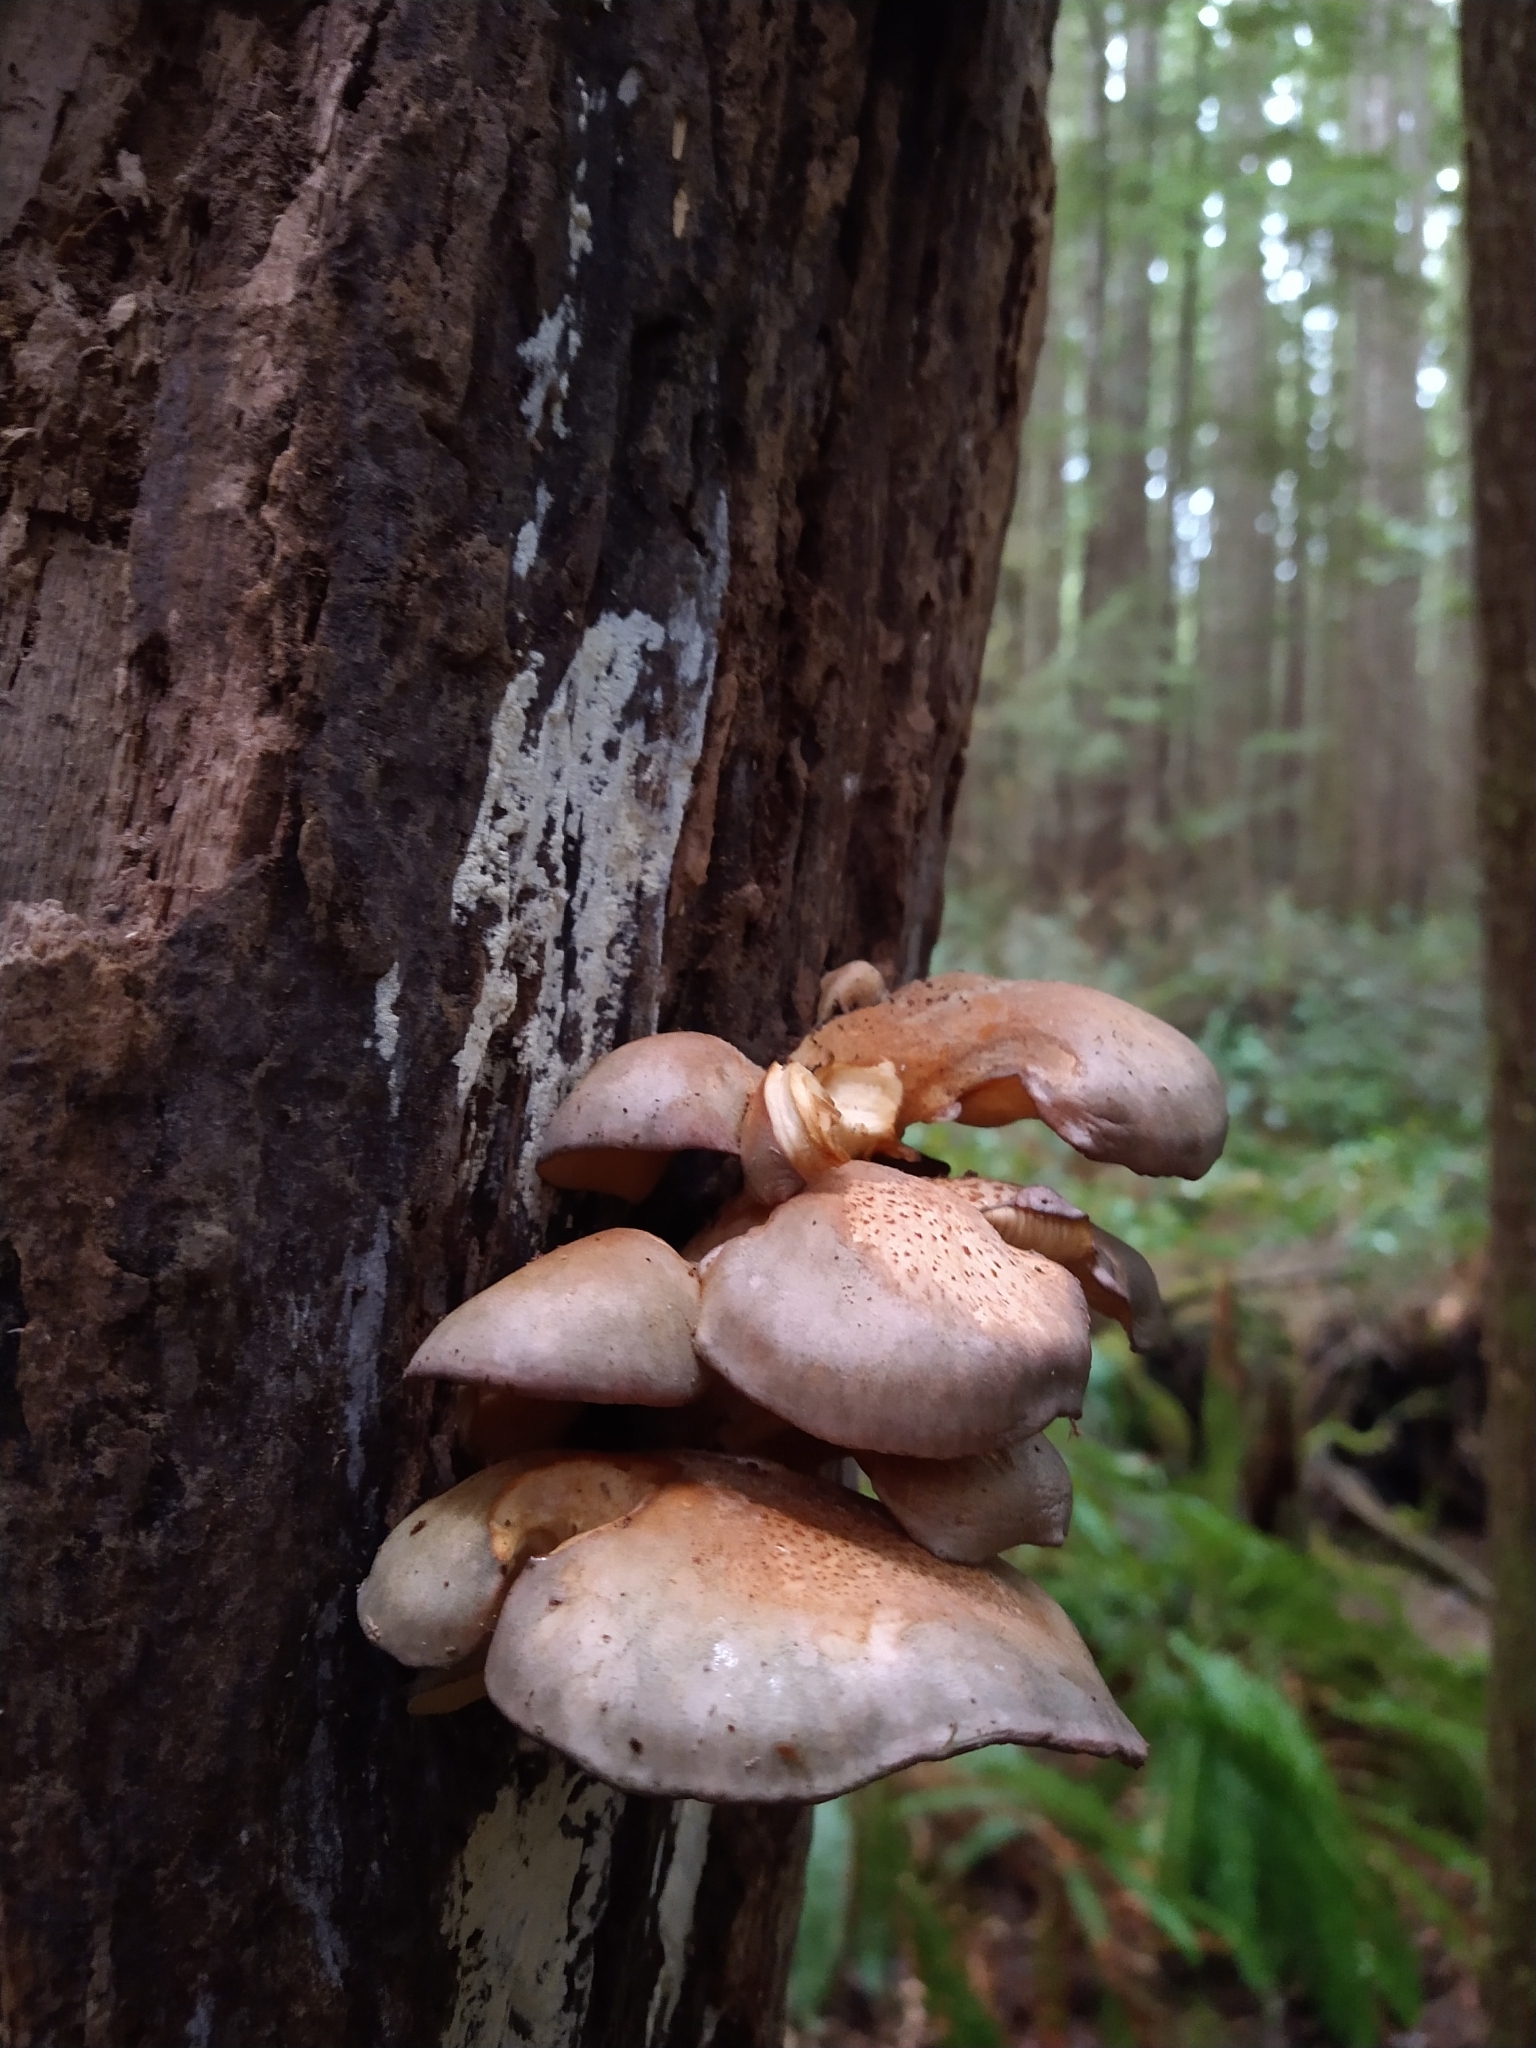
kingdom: Fungi
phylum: Basidiomycota
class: Agaricomycetes
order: Agaricales
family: Sarcomyxaceae
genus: Sarcomyxa
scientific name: Sarcomyxa serotina
